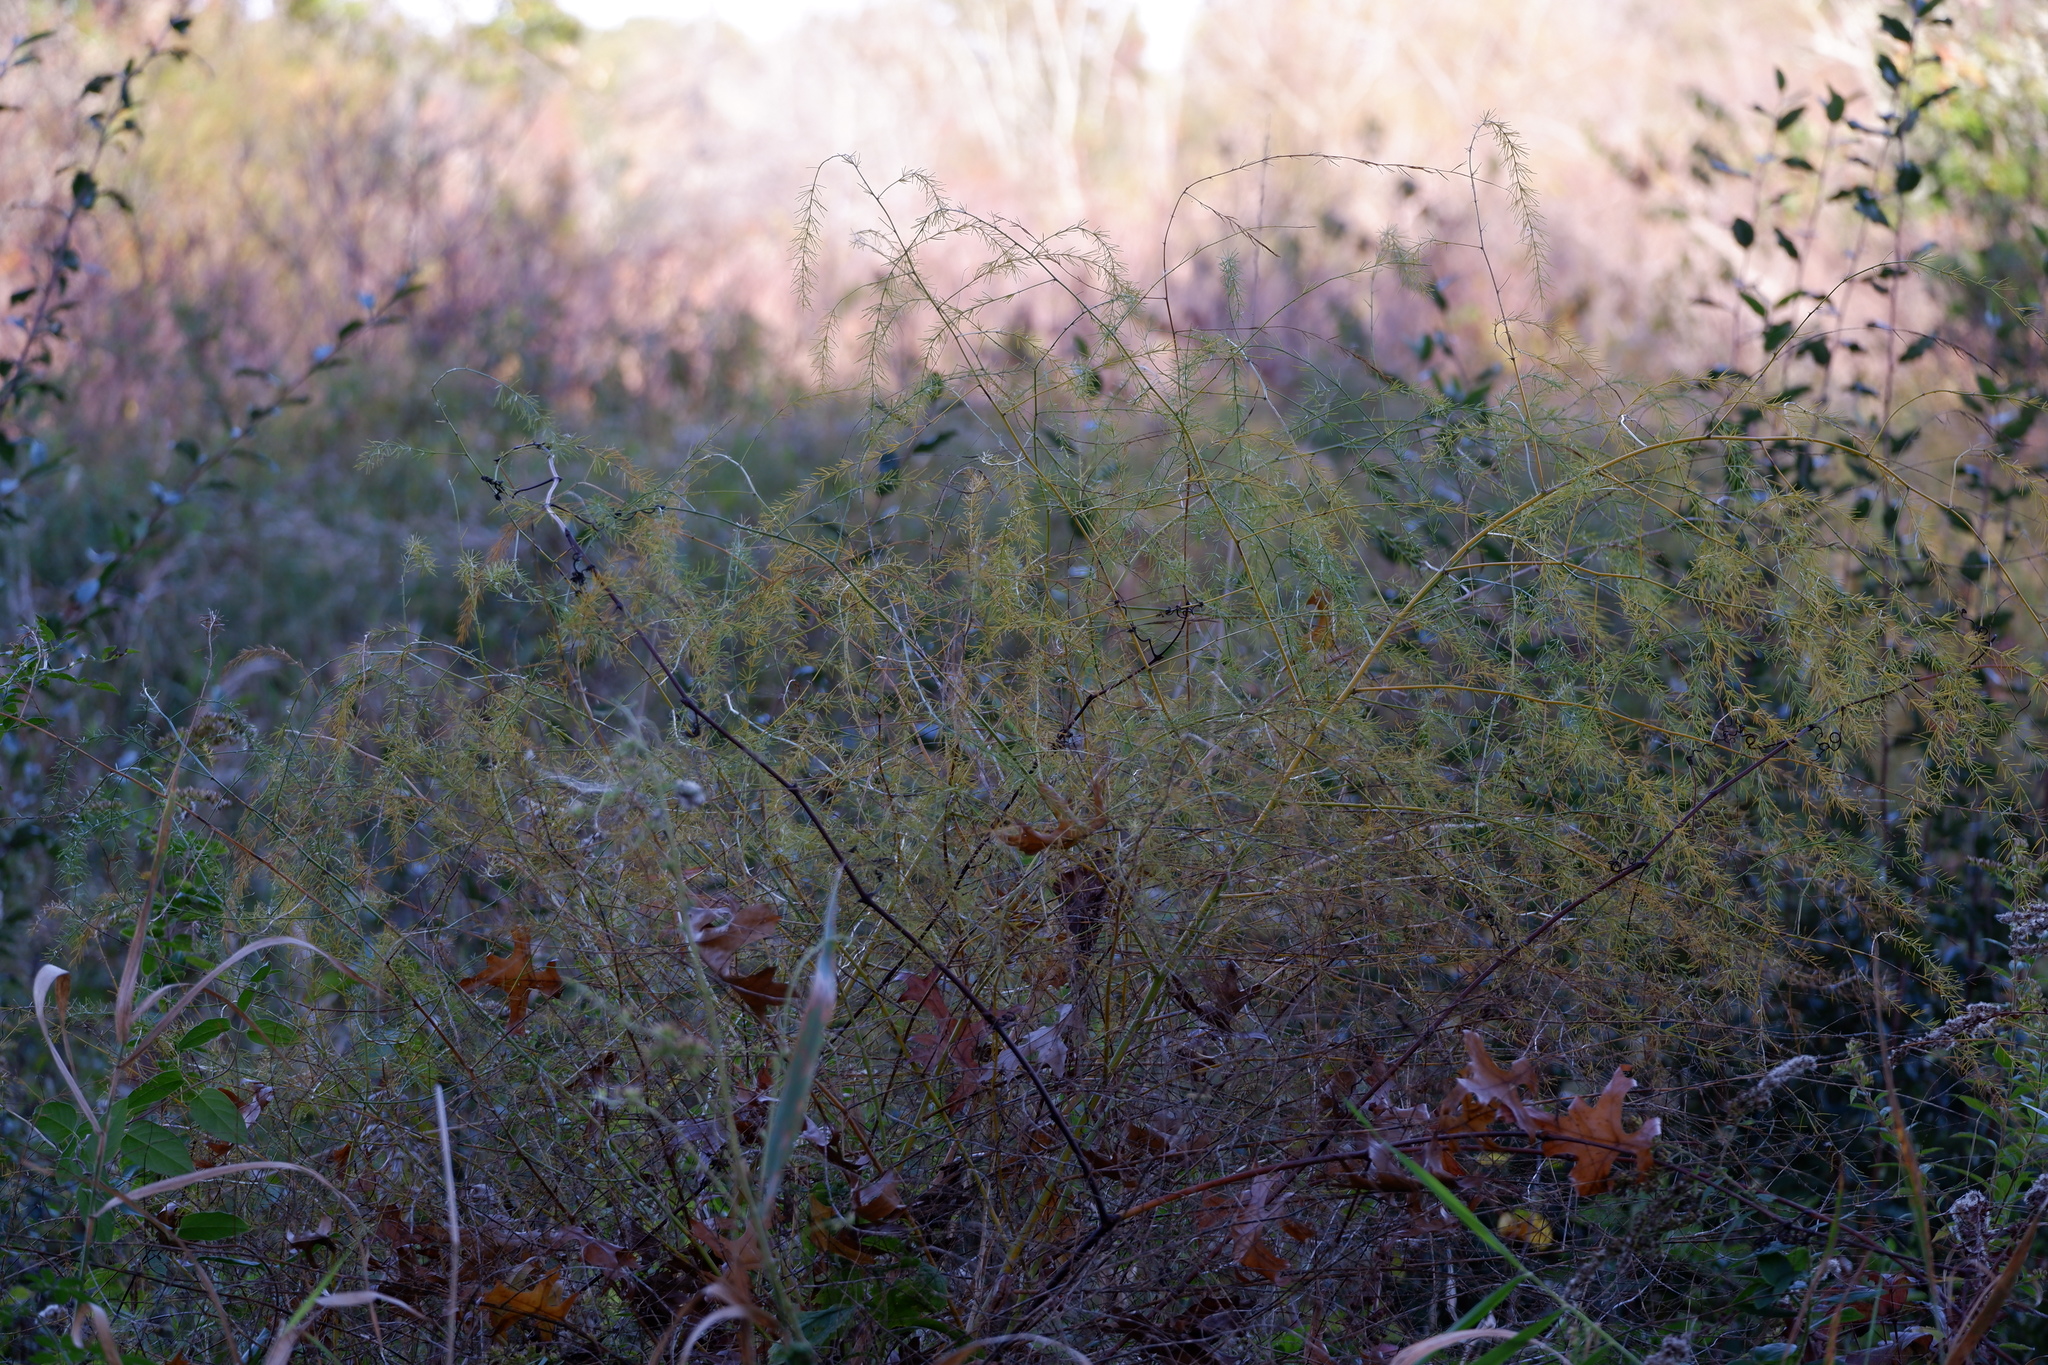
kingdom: Plantae
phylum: Tracheophyta
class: Liliopsida
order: Asparagales
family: Asparagaceae
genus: Asparagus
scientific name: Asparagus officinalis
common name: Garden asparagus
